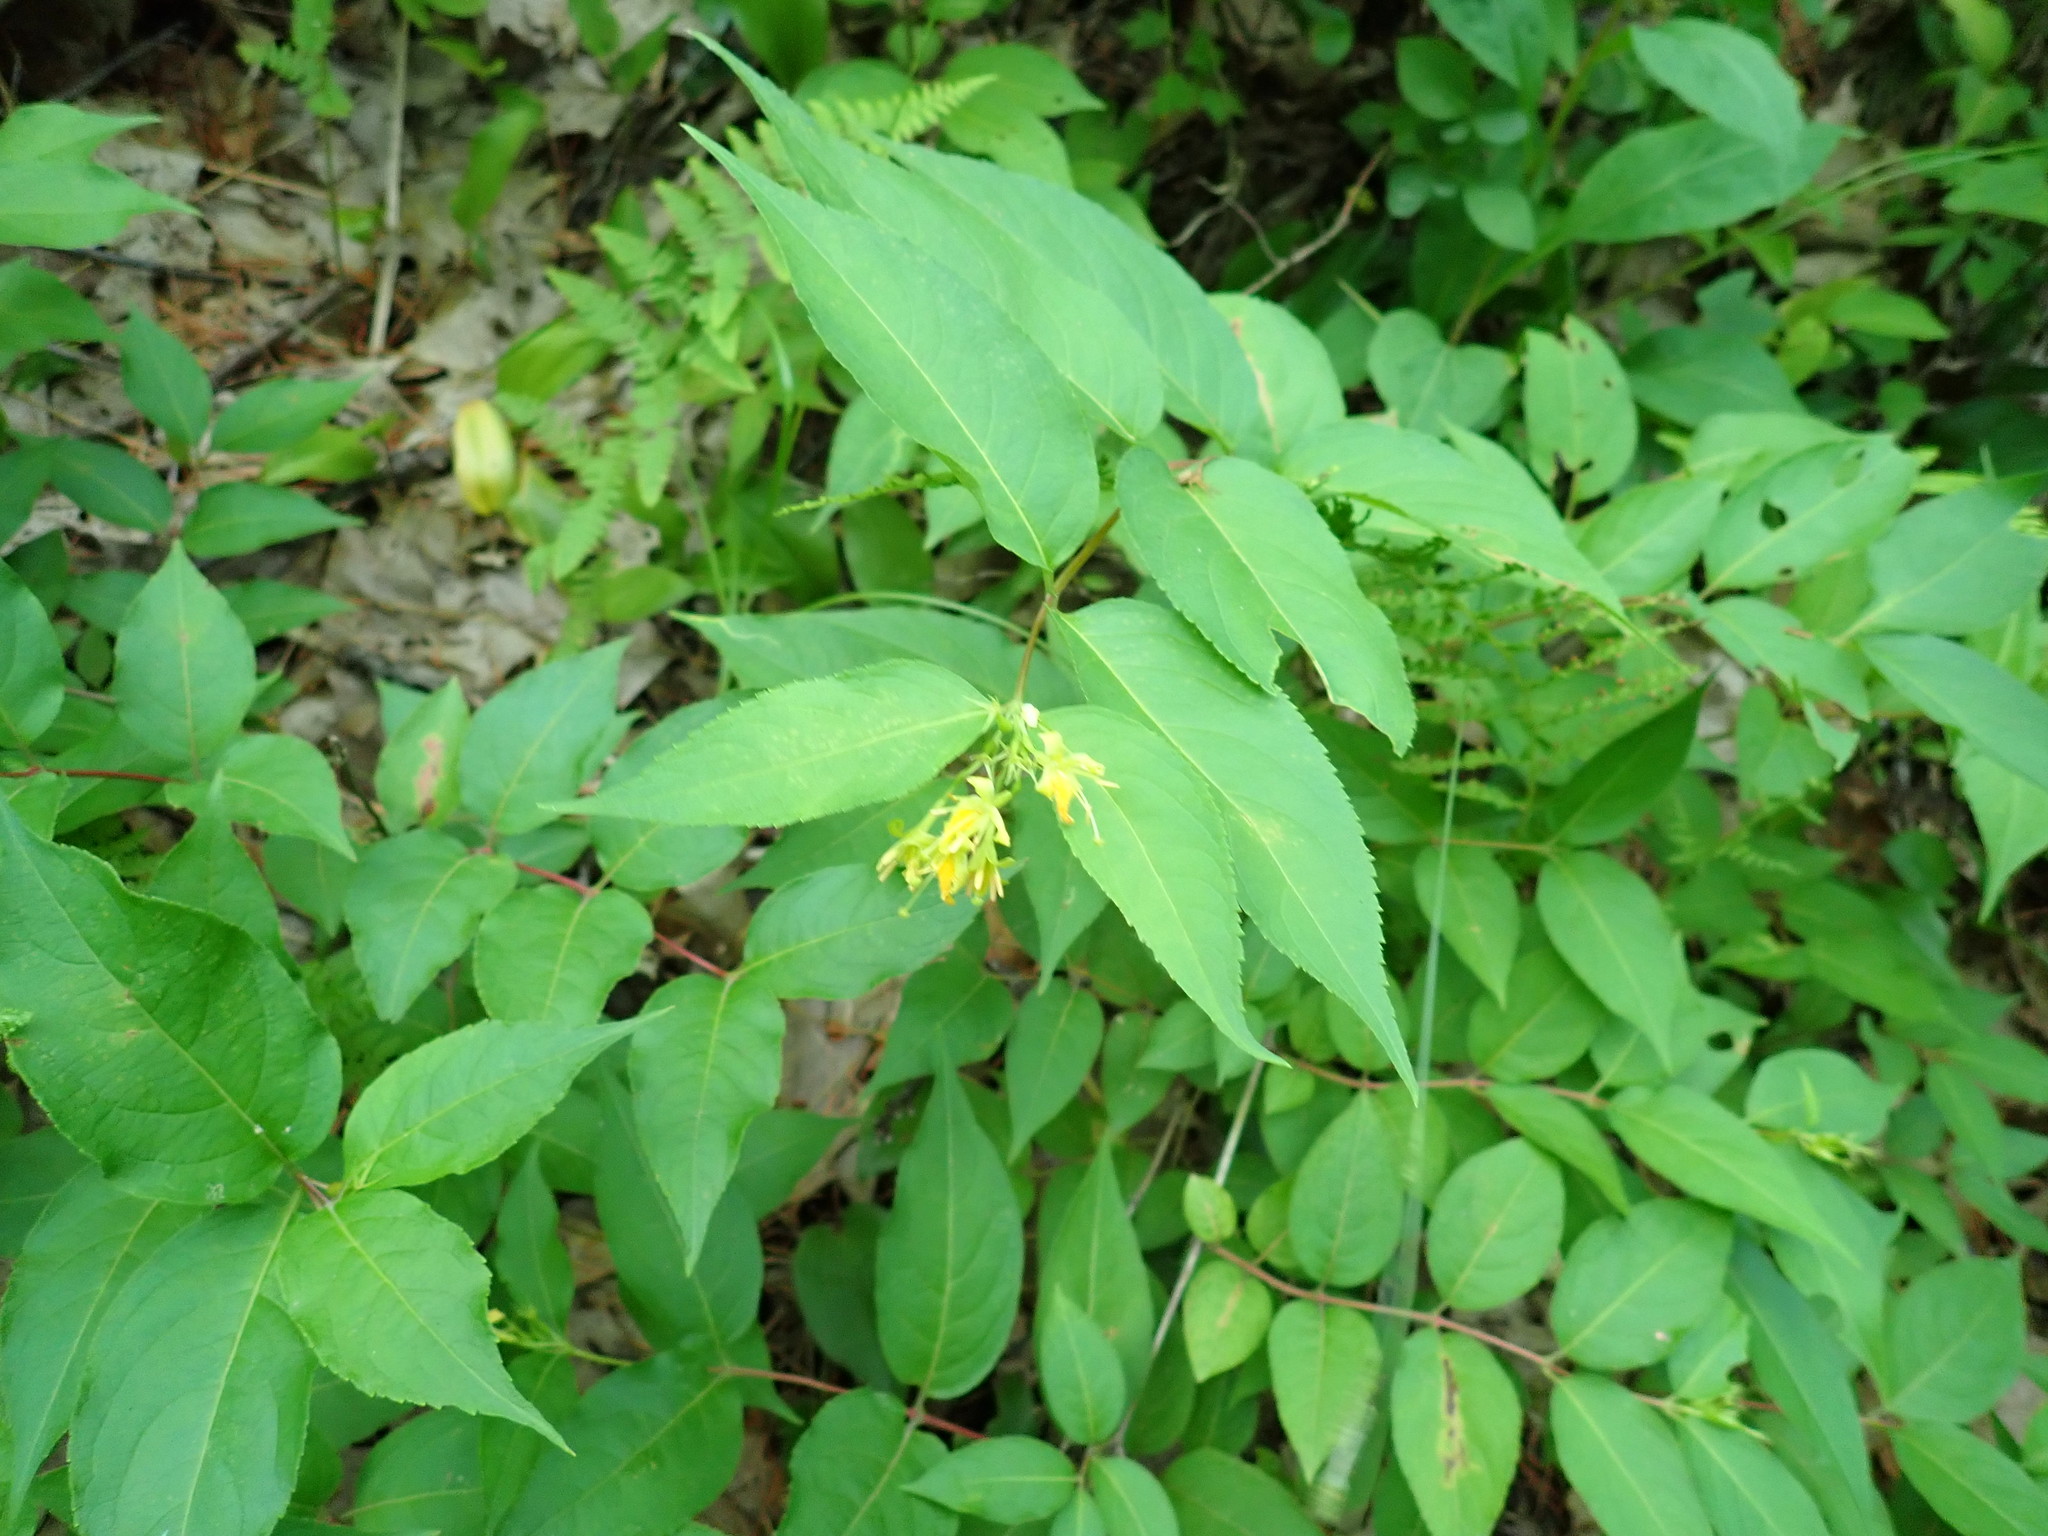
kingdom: Plantae
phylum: Tracheophyta
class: Magnoliopsida
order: Dipsacales
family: Caprifoliaceae
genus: Diervilla
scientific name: Diervilla lonicera
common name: Bush-honeysuckle
